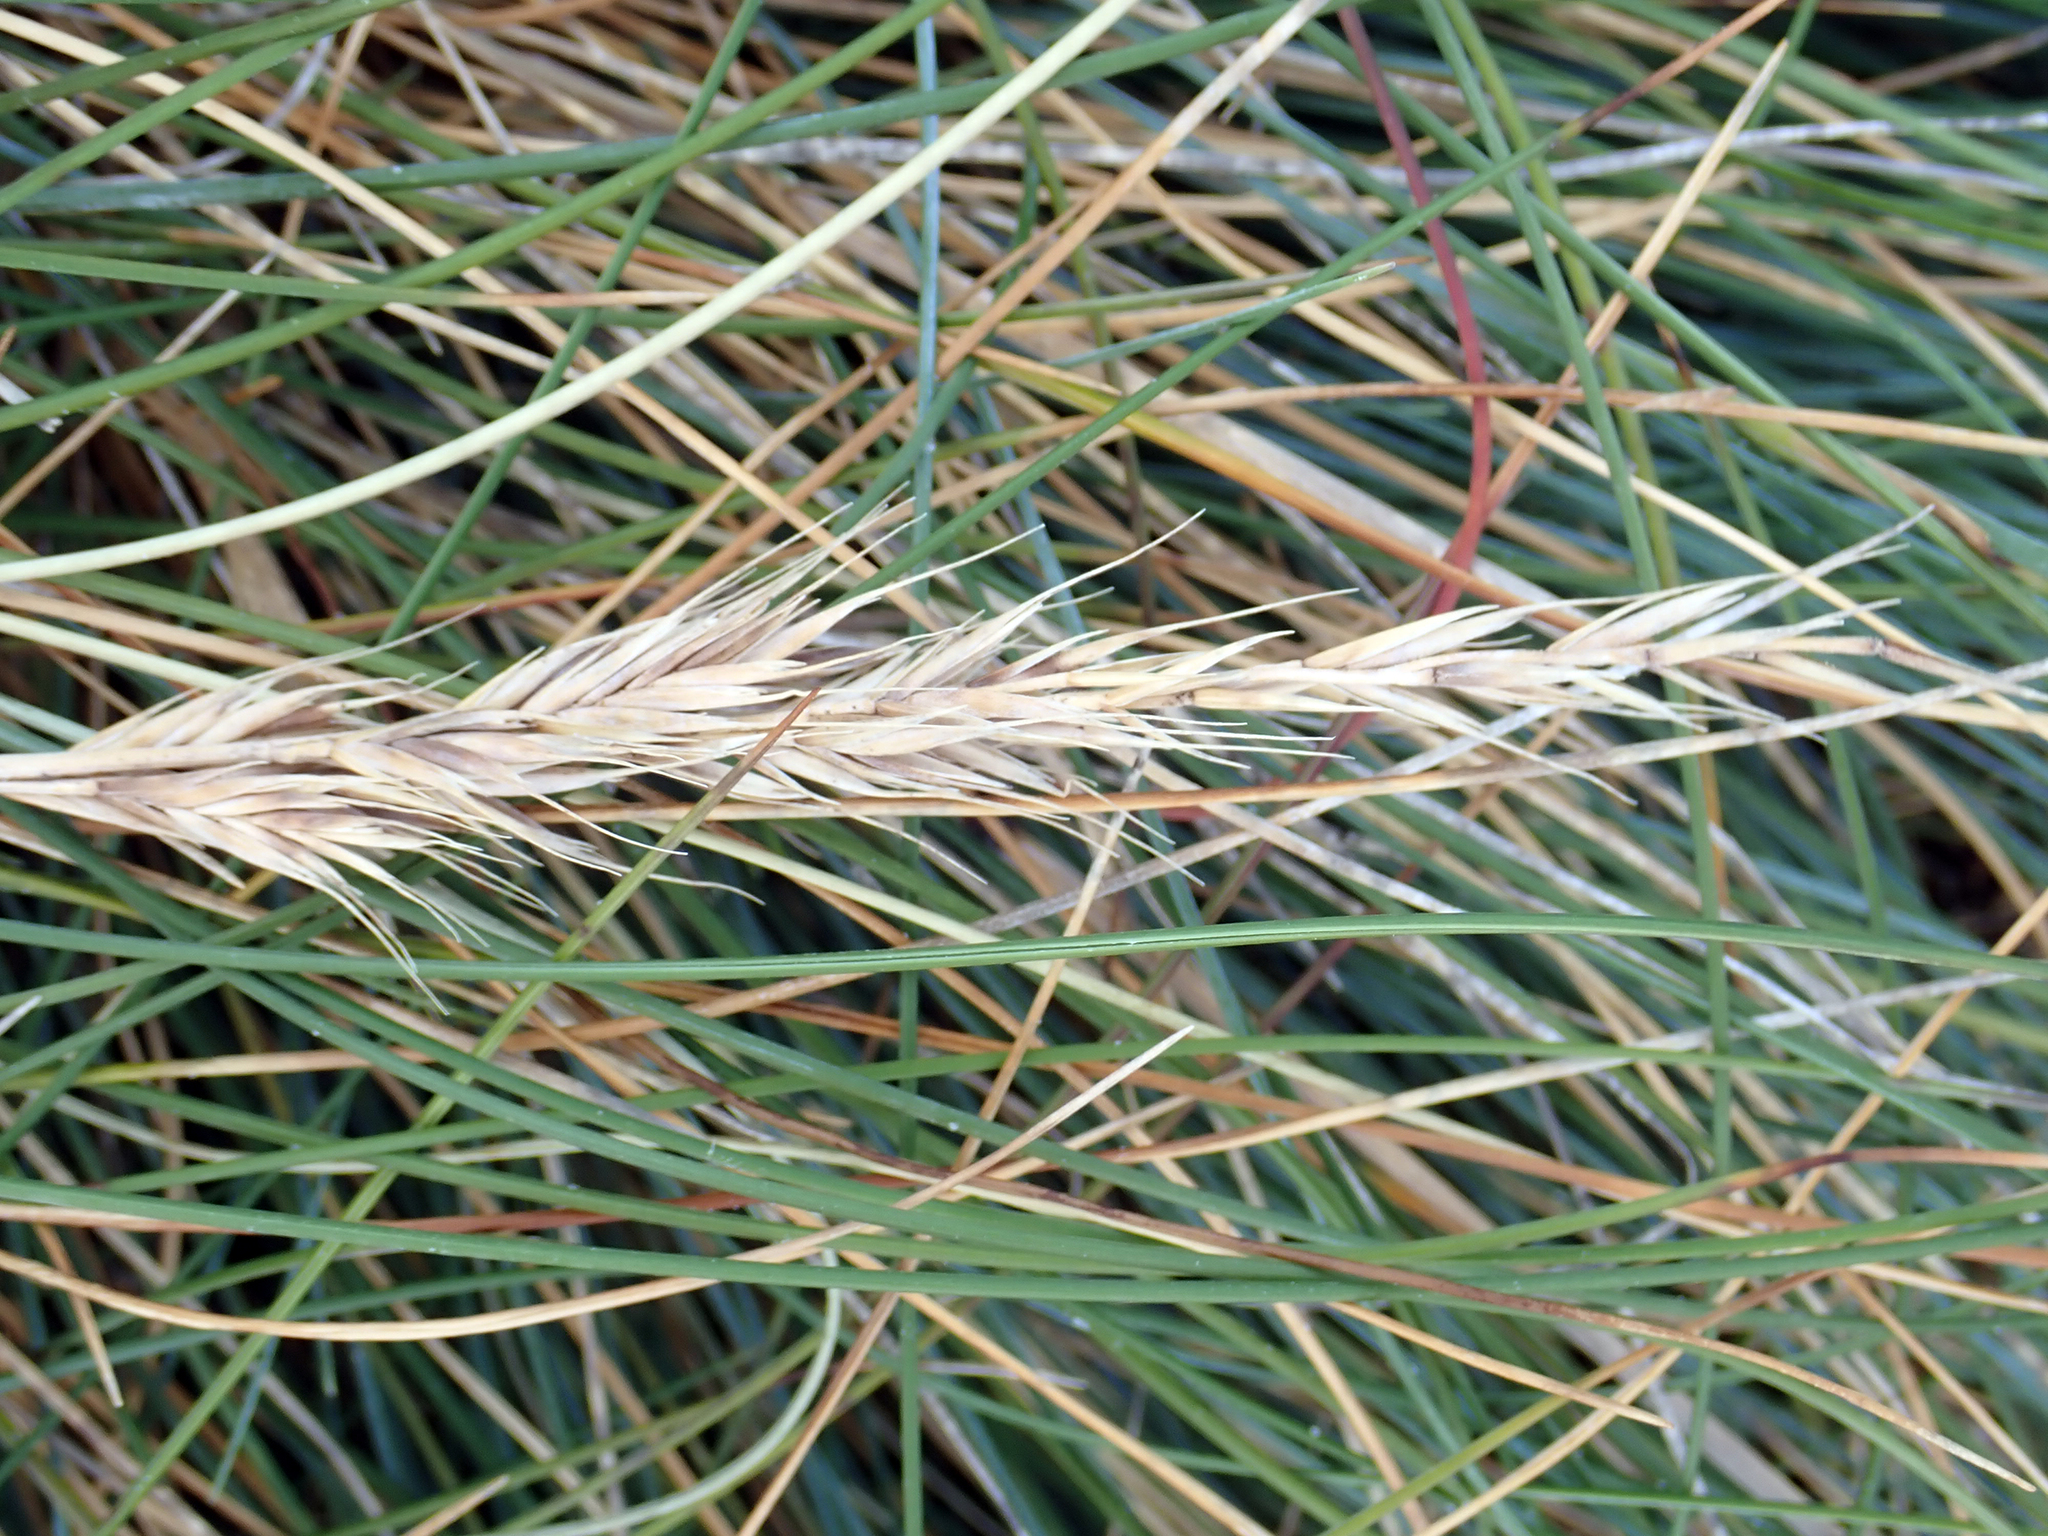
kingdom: Plantae
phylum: Tracheophyta
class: Liliopsida
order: Poales
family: Poaceae
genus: Festuca
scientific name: Festuca coxii
